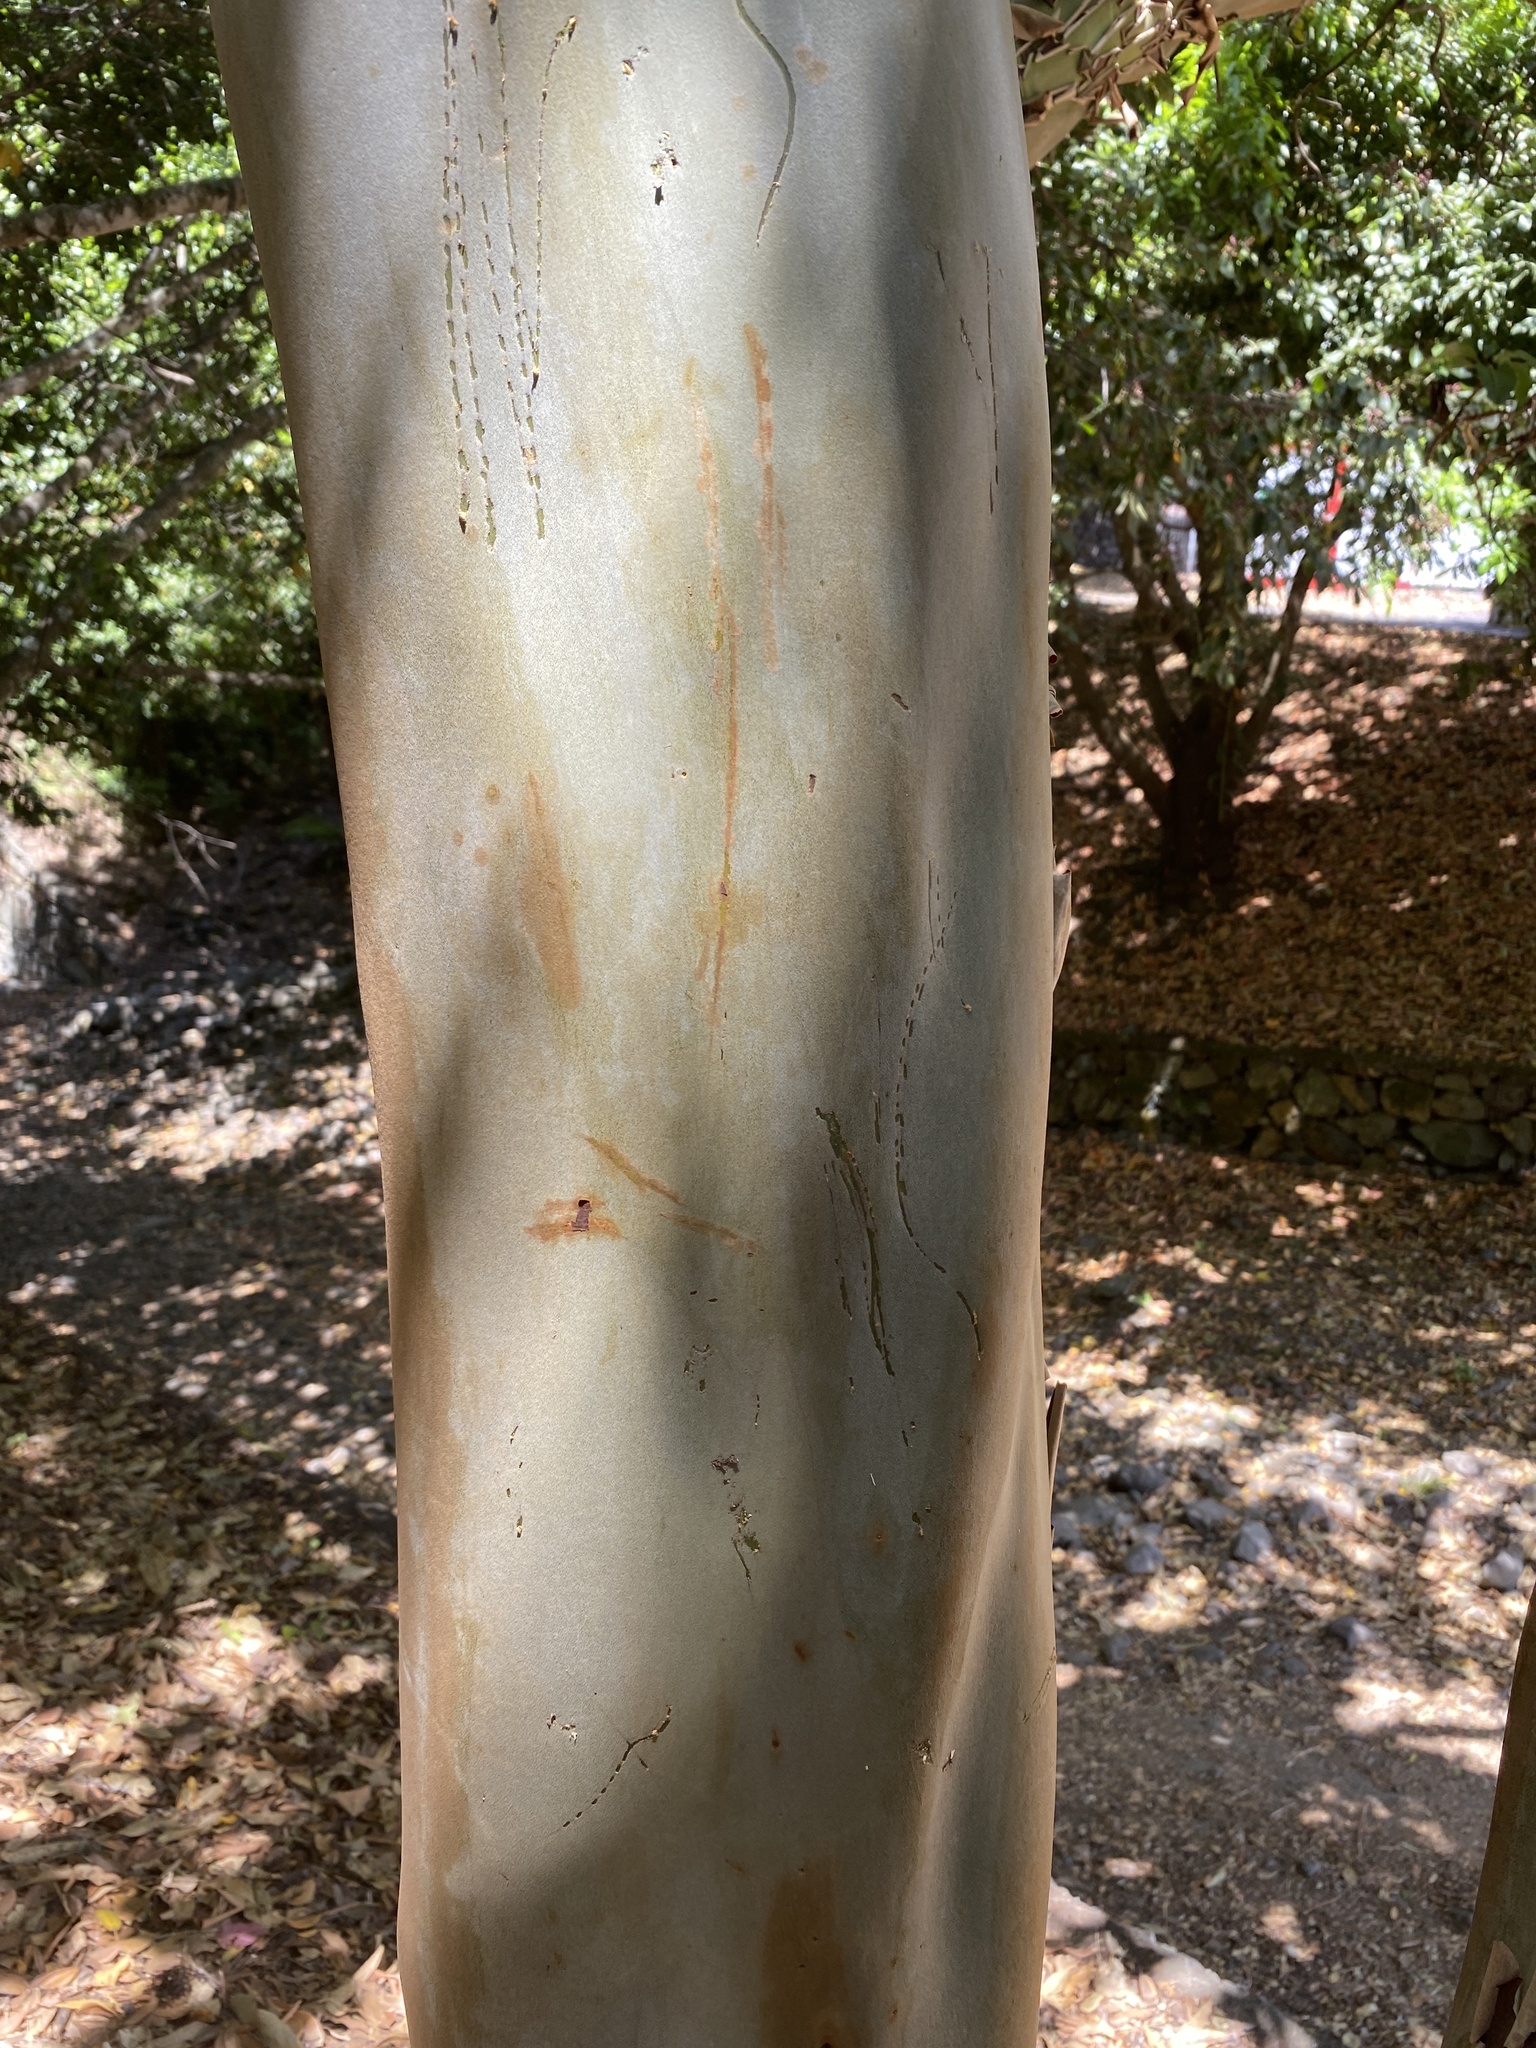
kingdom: Plantae
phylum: Tracheophyta
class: Magnoliopsida
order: Ericales
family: Ericaceae
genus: Arbutus
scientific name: Arbutus canariensis
